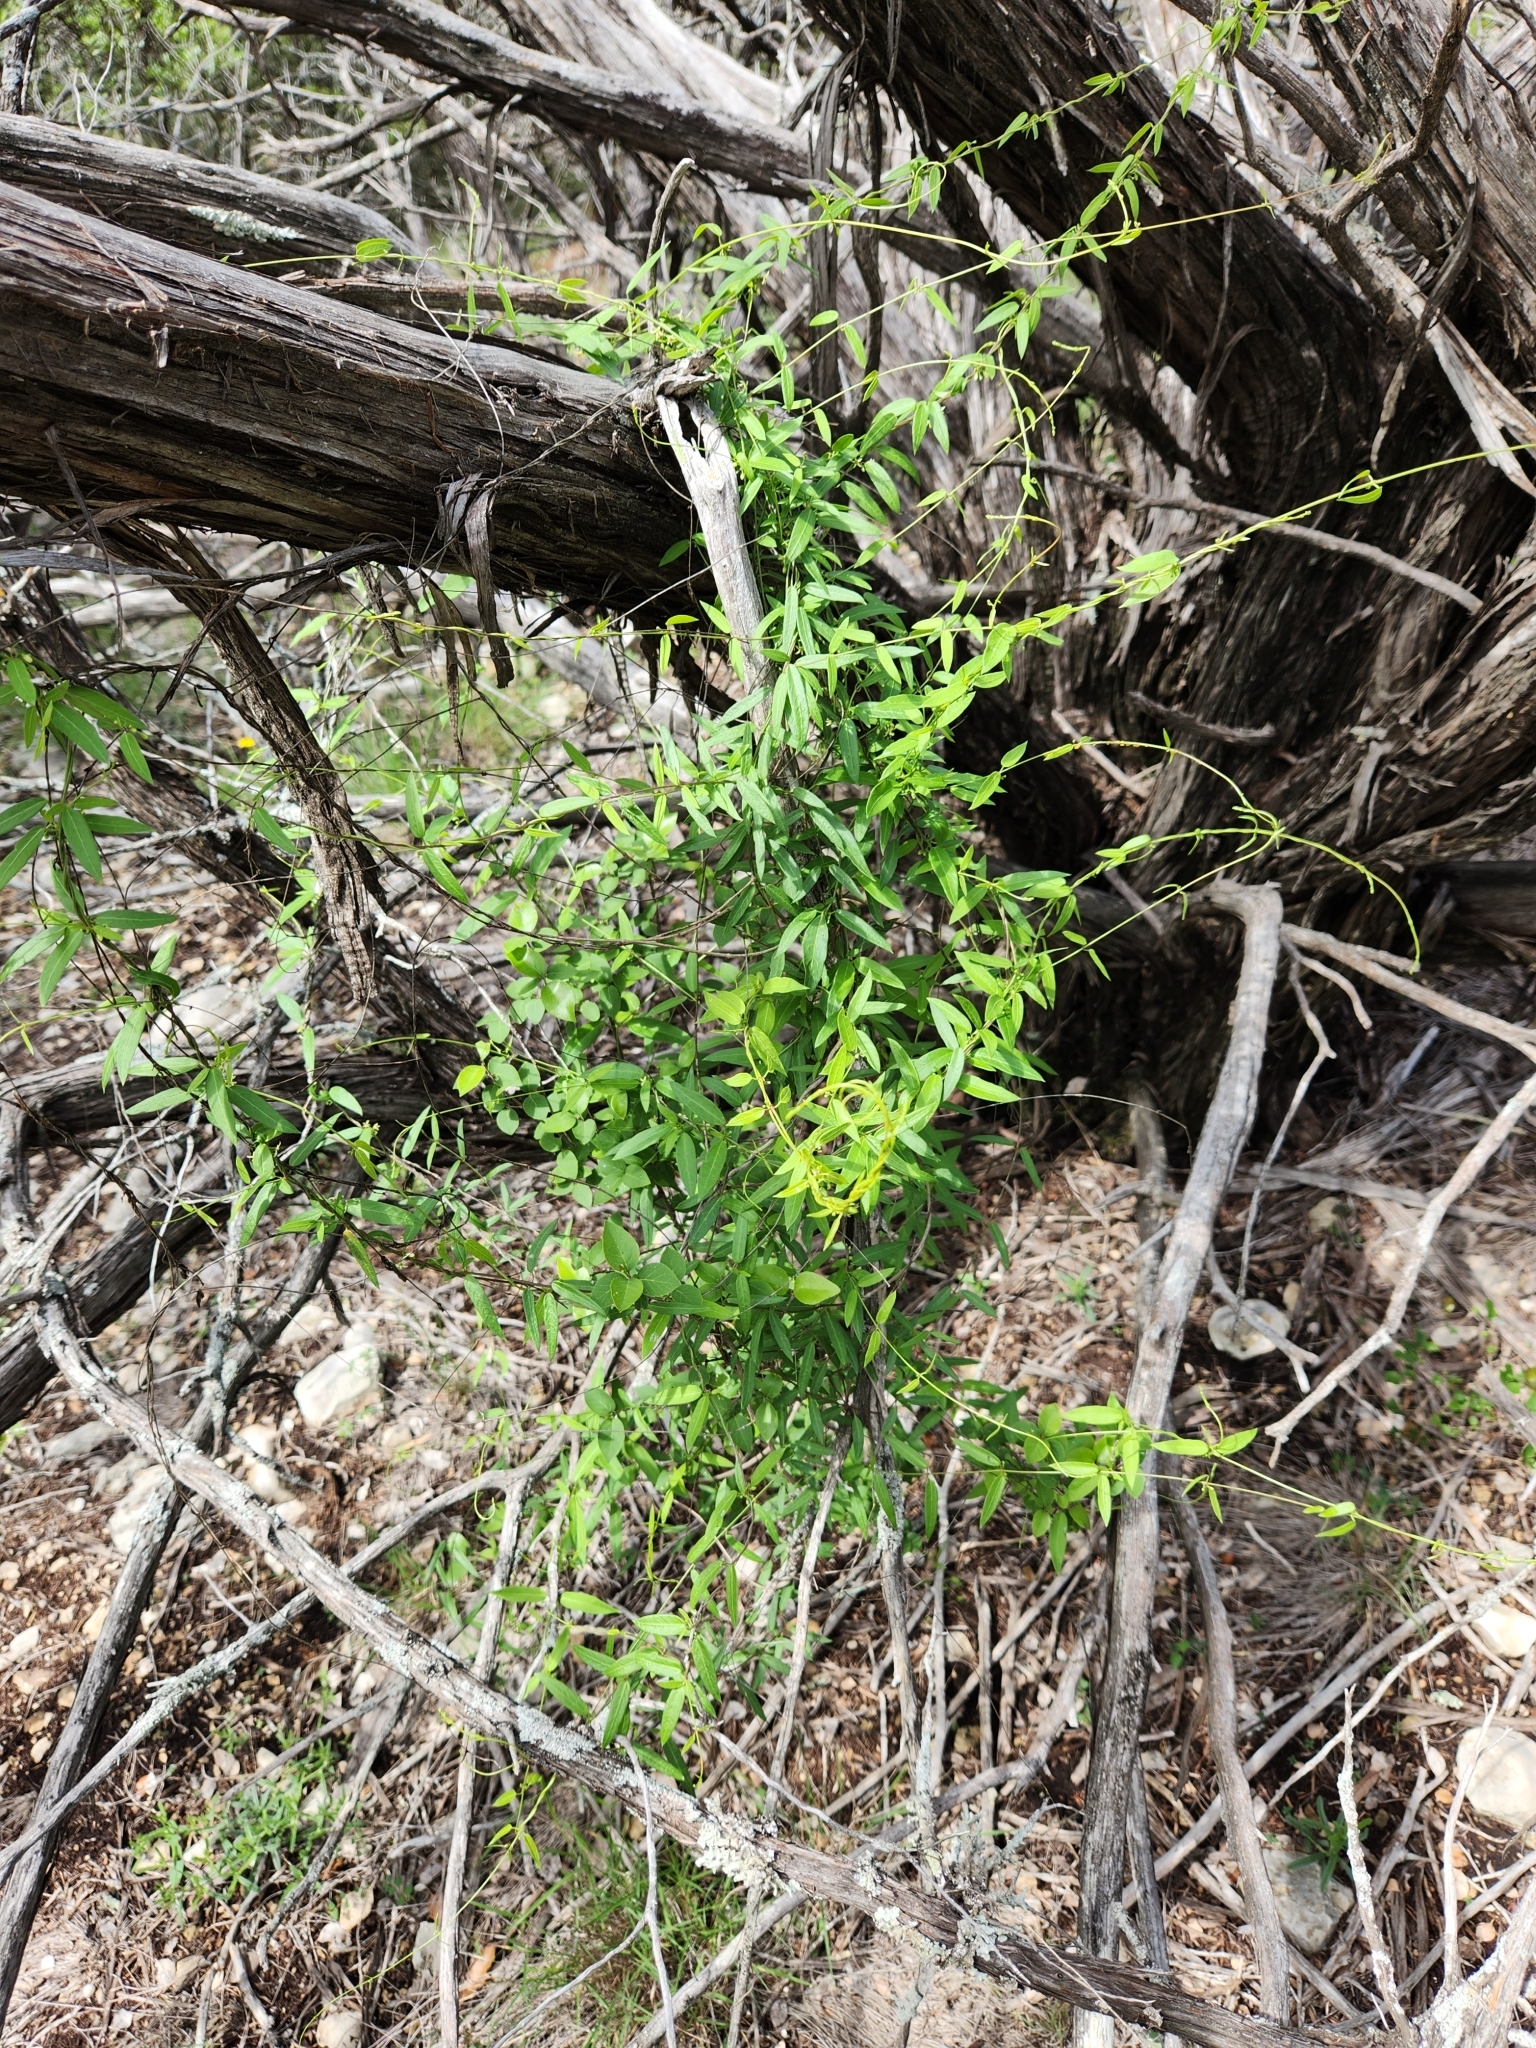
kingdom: Plantae
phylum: Tracheophyta
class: Magnoliopsida
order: Gentianales
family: Apocynaceae
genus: Metastelma
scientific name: Metastelma palmeri
